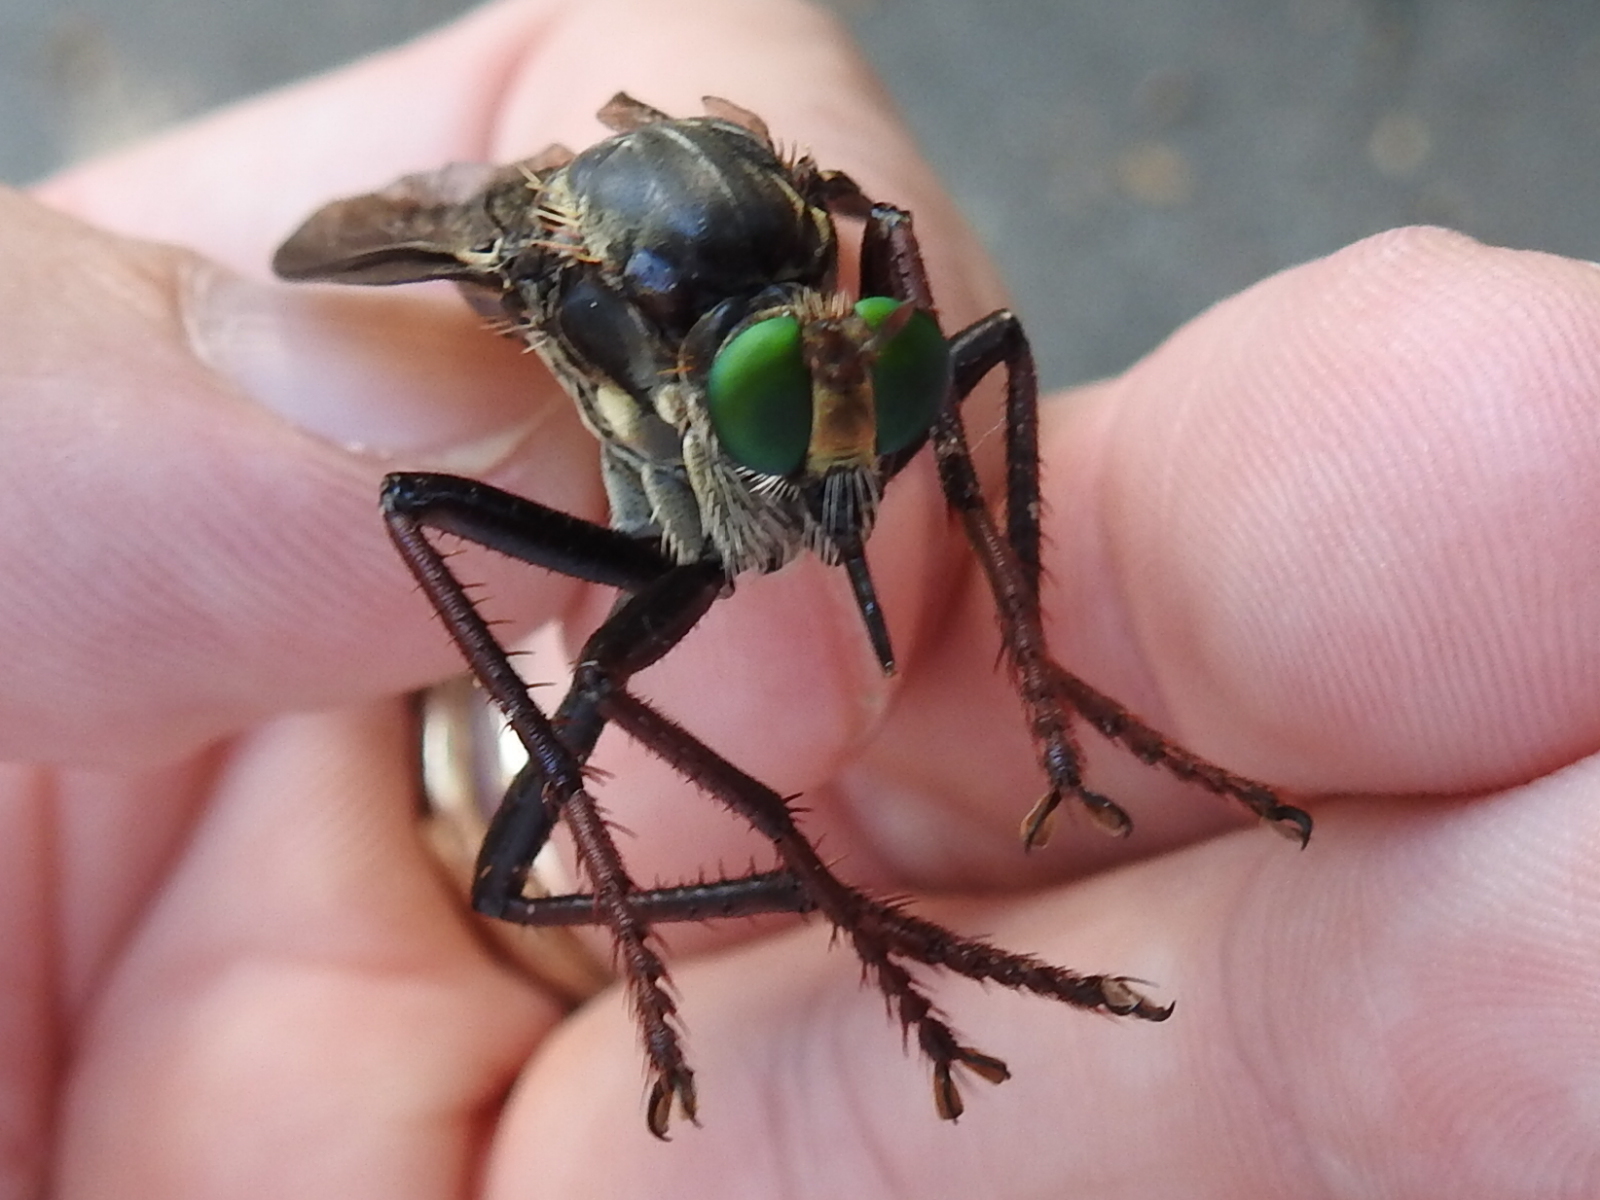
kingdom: Animalia
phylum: Arthropoda
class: Insecta
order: Diptera
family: Asilidae
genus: Microstylum
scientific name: Microstylum morosum
